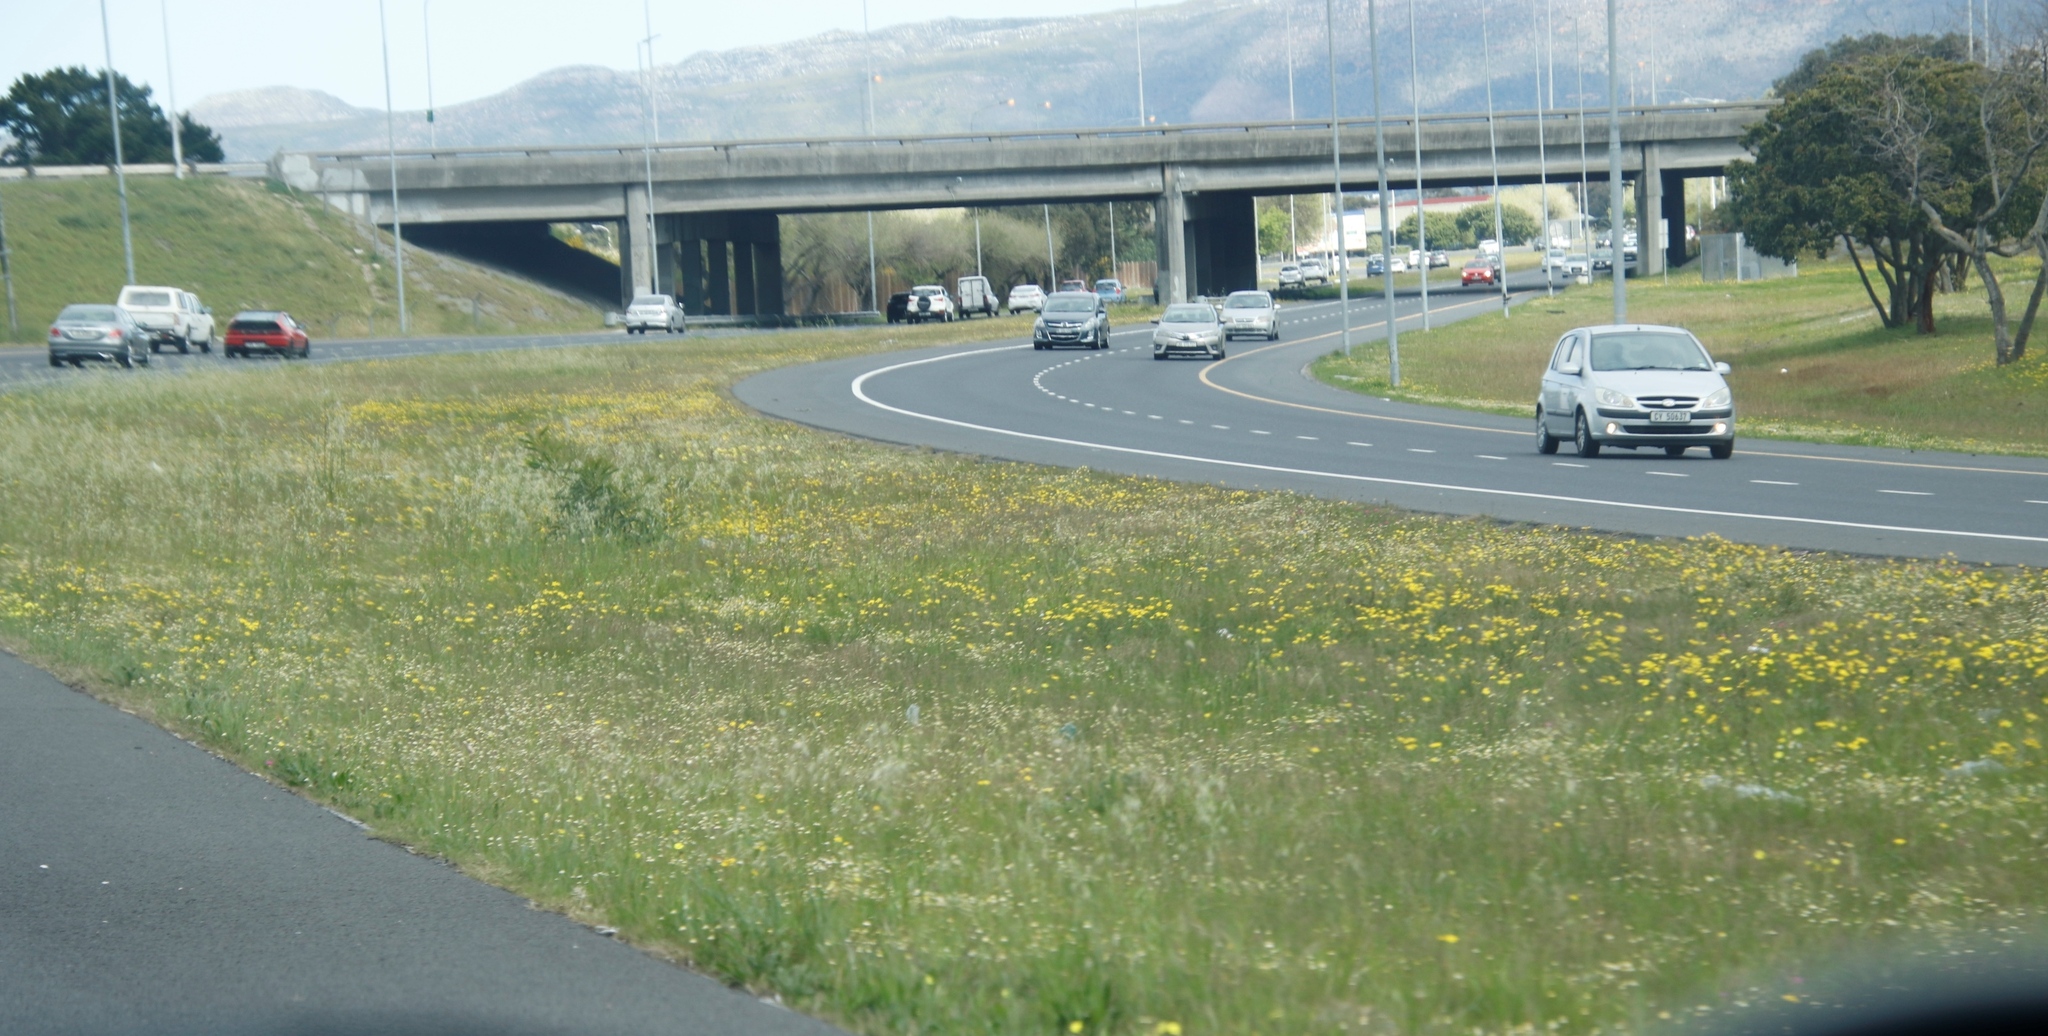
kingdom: Plantae
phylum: Tracheophyta
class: Magnoliopsida
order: Asterales
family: Asteraceae
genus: Cotula
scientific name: Cotula turbinata
